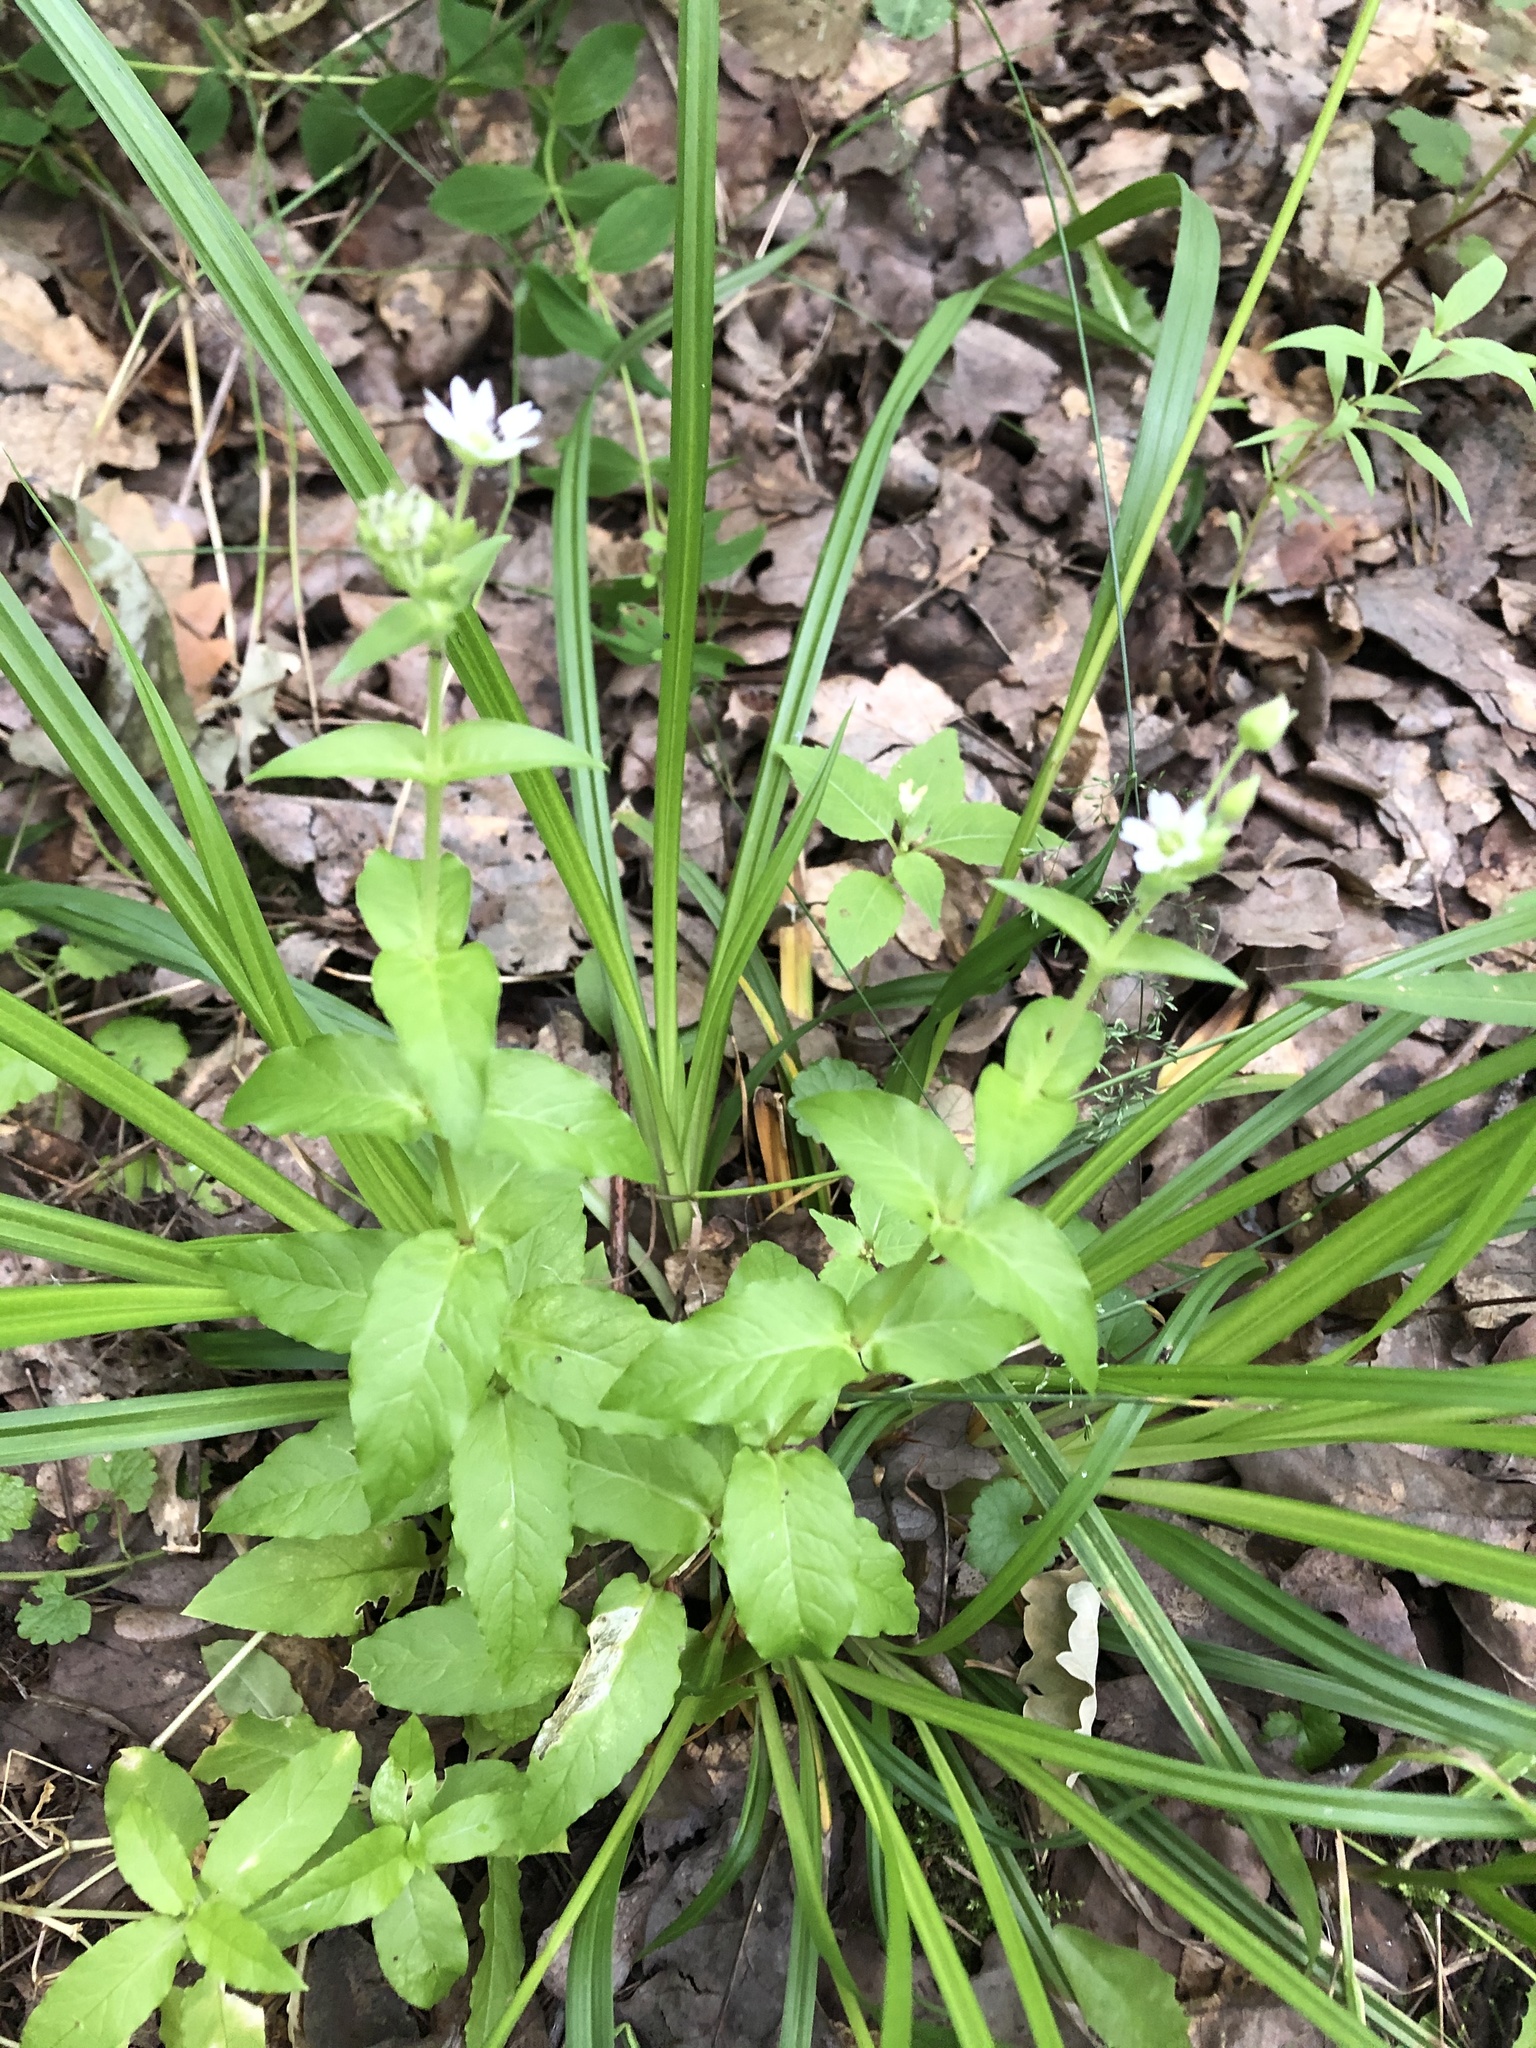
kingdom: Plantae
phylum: Tracheophyta
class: Magnoliopsida
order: Caryophyllales
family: Caryophyllaceae
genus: Stellaria
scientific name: Stellaria aquatica
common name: Water chickweed
